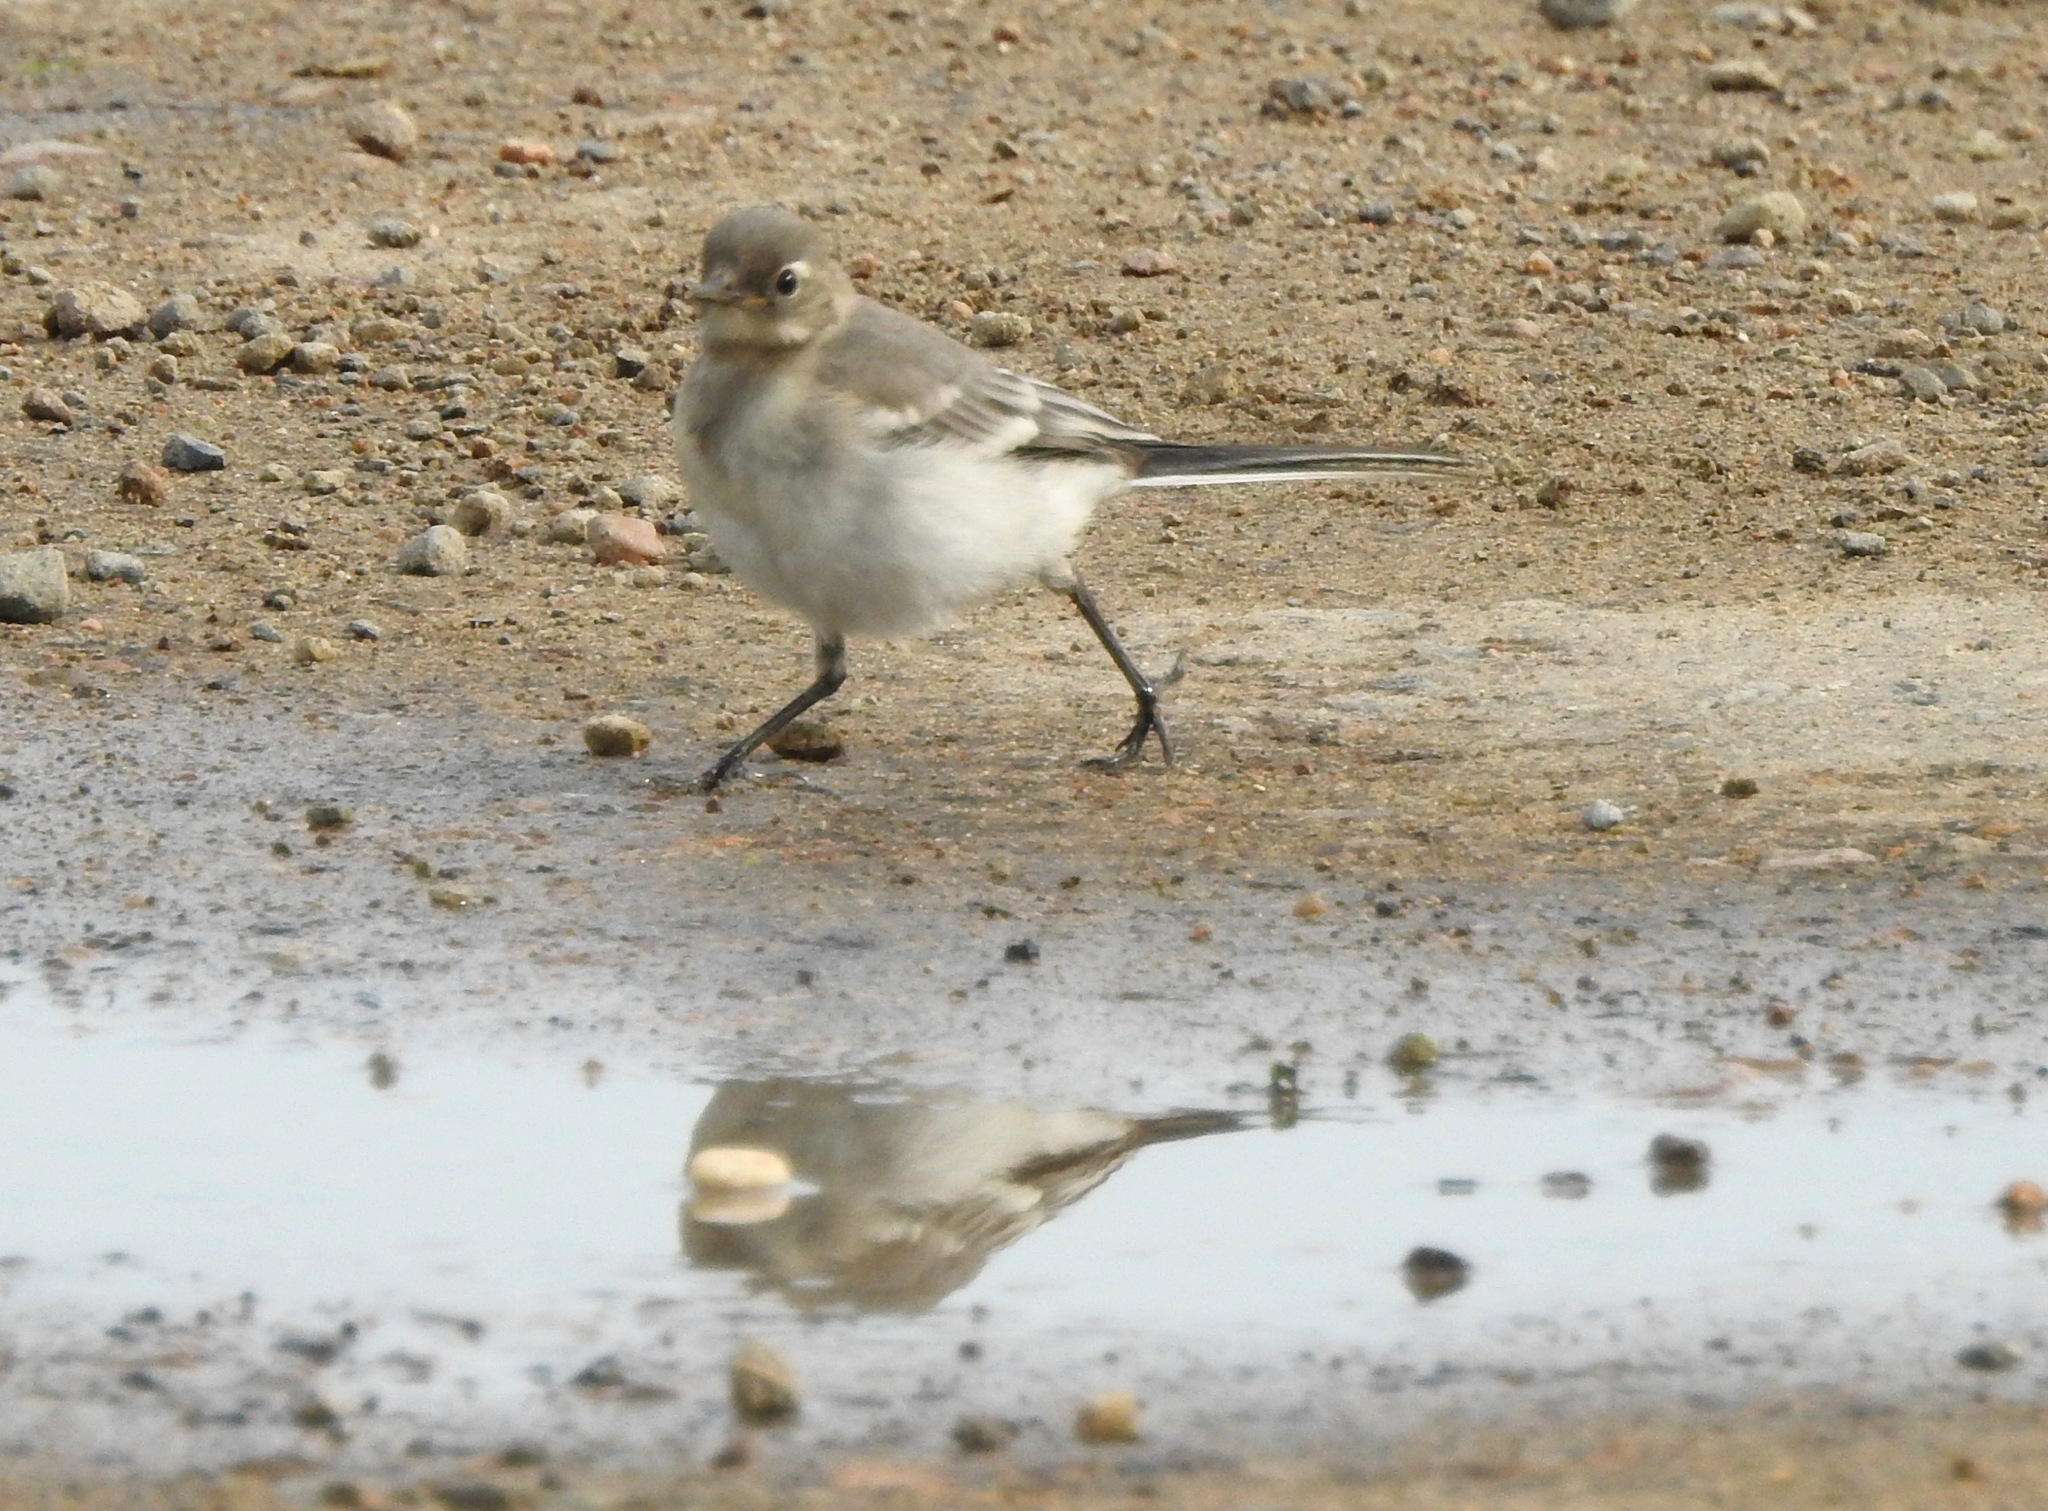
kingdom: Animalia
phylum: Chordata
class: Aves
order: Passeriformes
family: Motacillidae
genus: Motacilla
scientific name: Motacilla alba
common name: White wagtail
